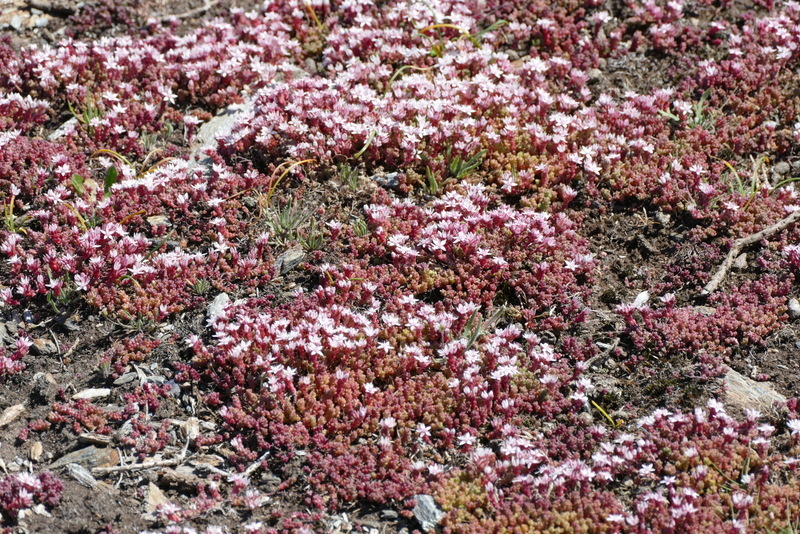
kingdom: Plantae
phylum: Tracheophyta
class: Magnoliopsida
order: Saxifragales
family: Crassulaceae
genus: Sedum
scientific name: Sedum anglicum
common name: English stonecrop
